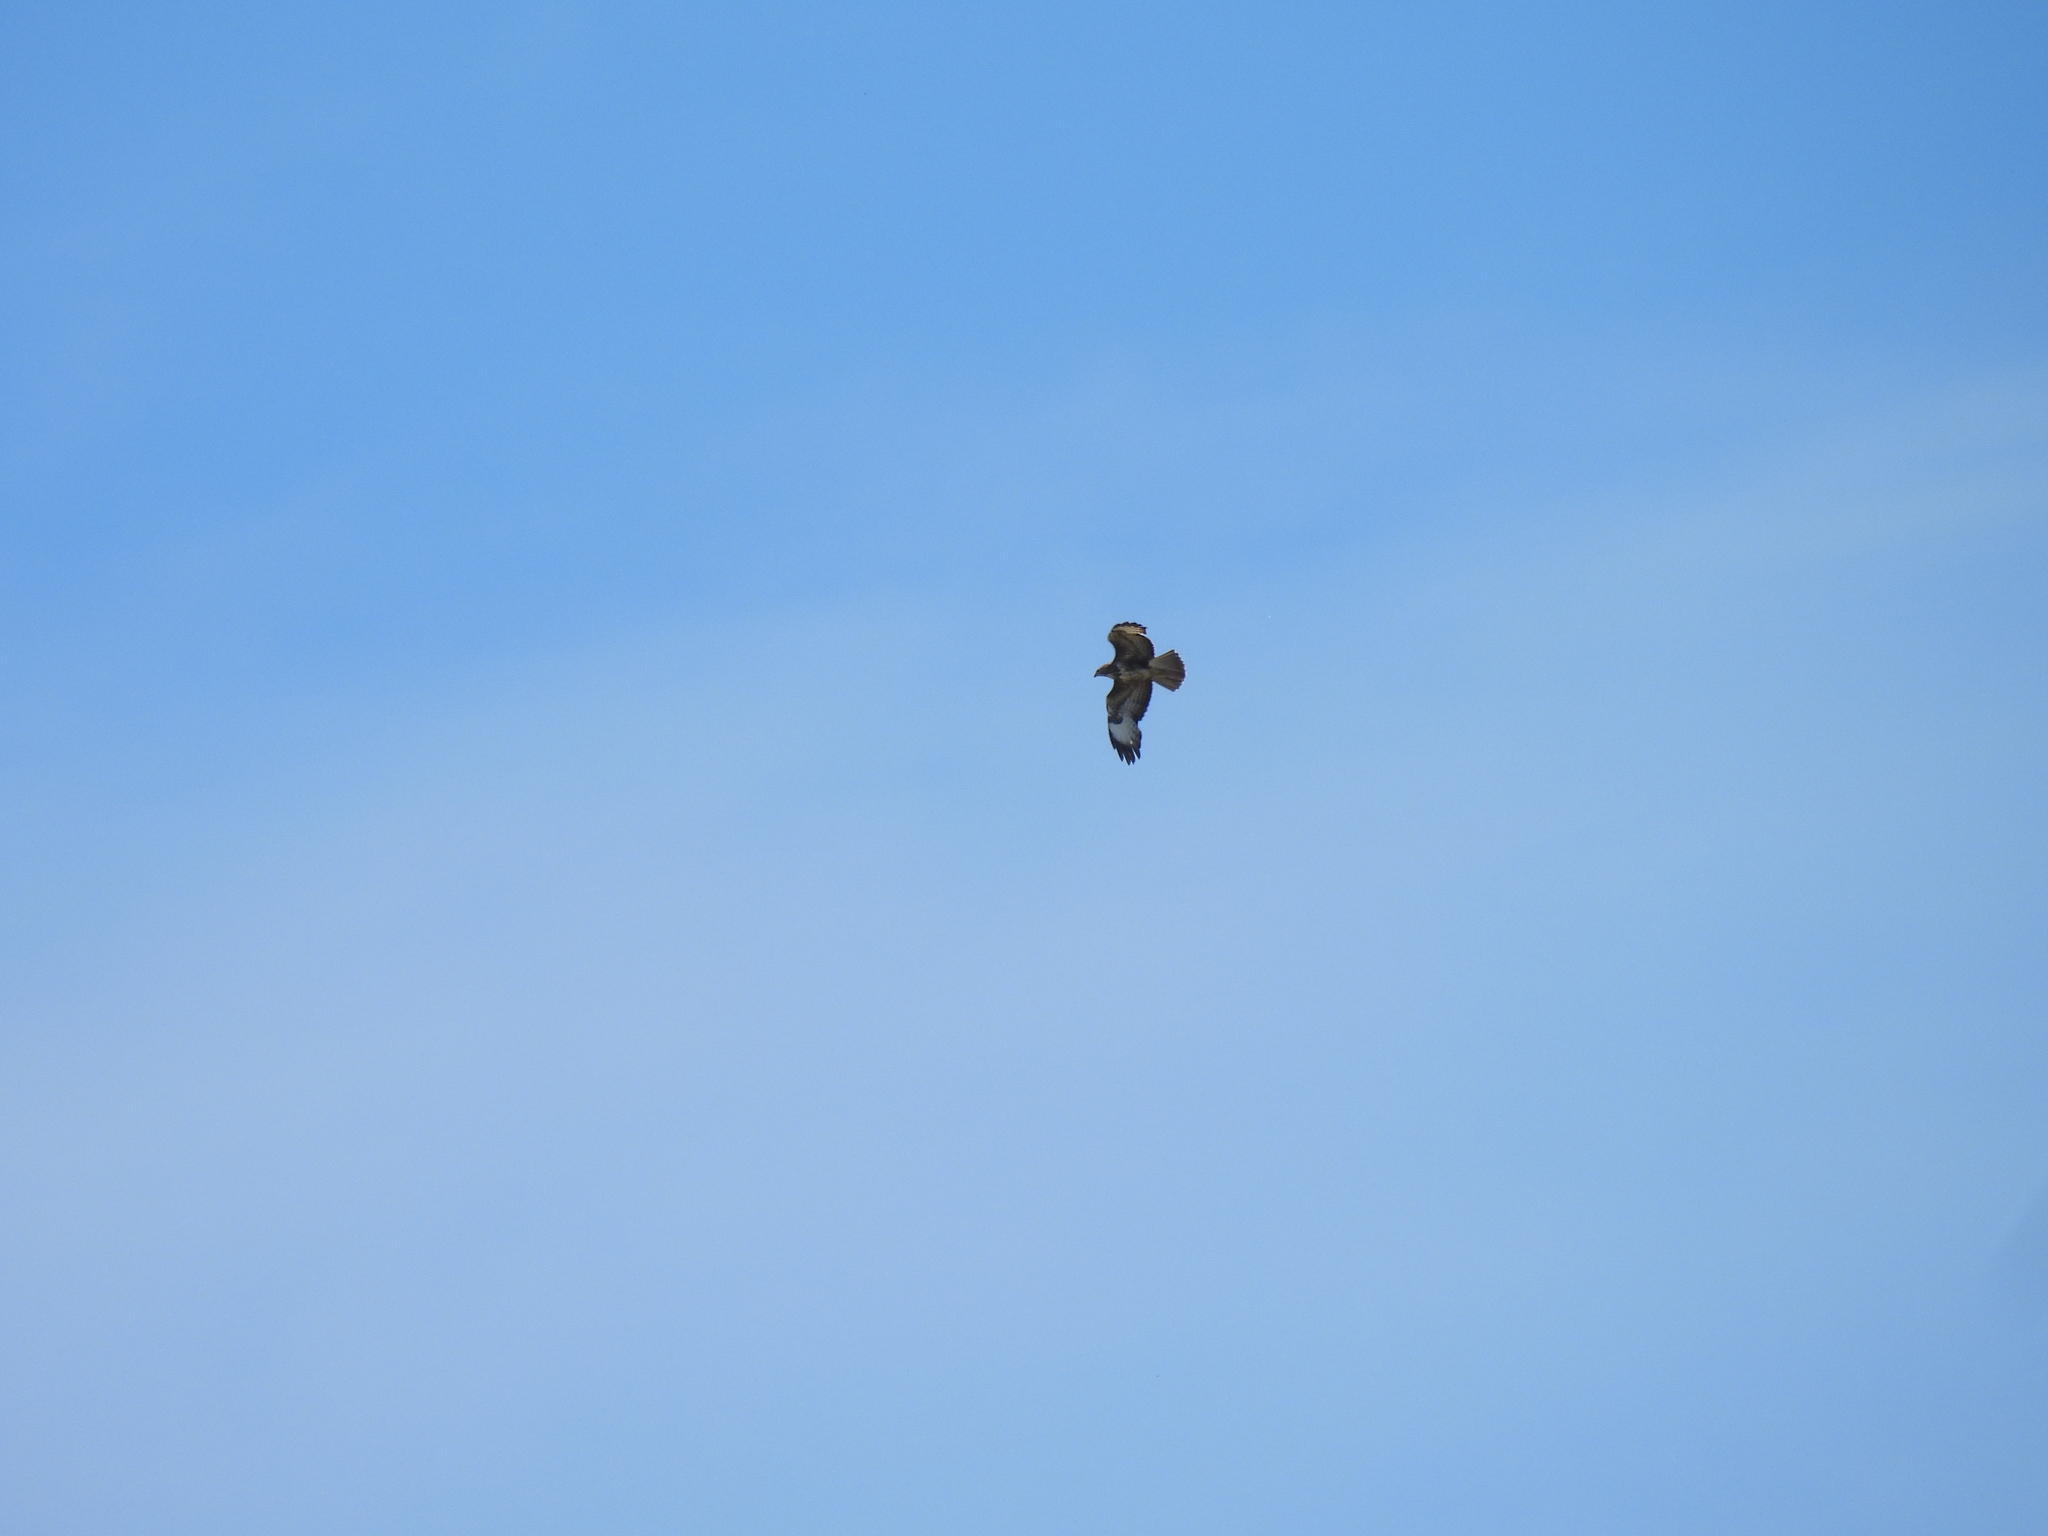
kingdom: Animalia
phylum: Chordata
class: Aves
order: Accipitriformes
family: Accipitridae
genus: Buteo
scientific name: Buteo buteo
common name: Common buzzard
